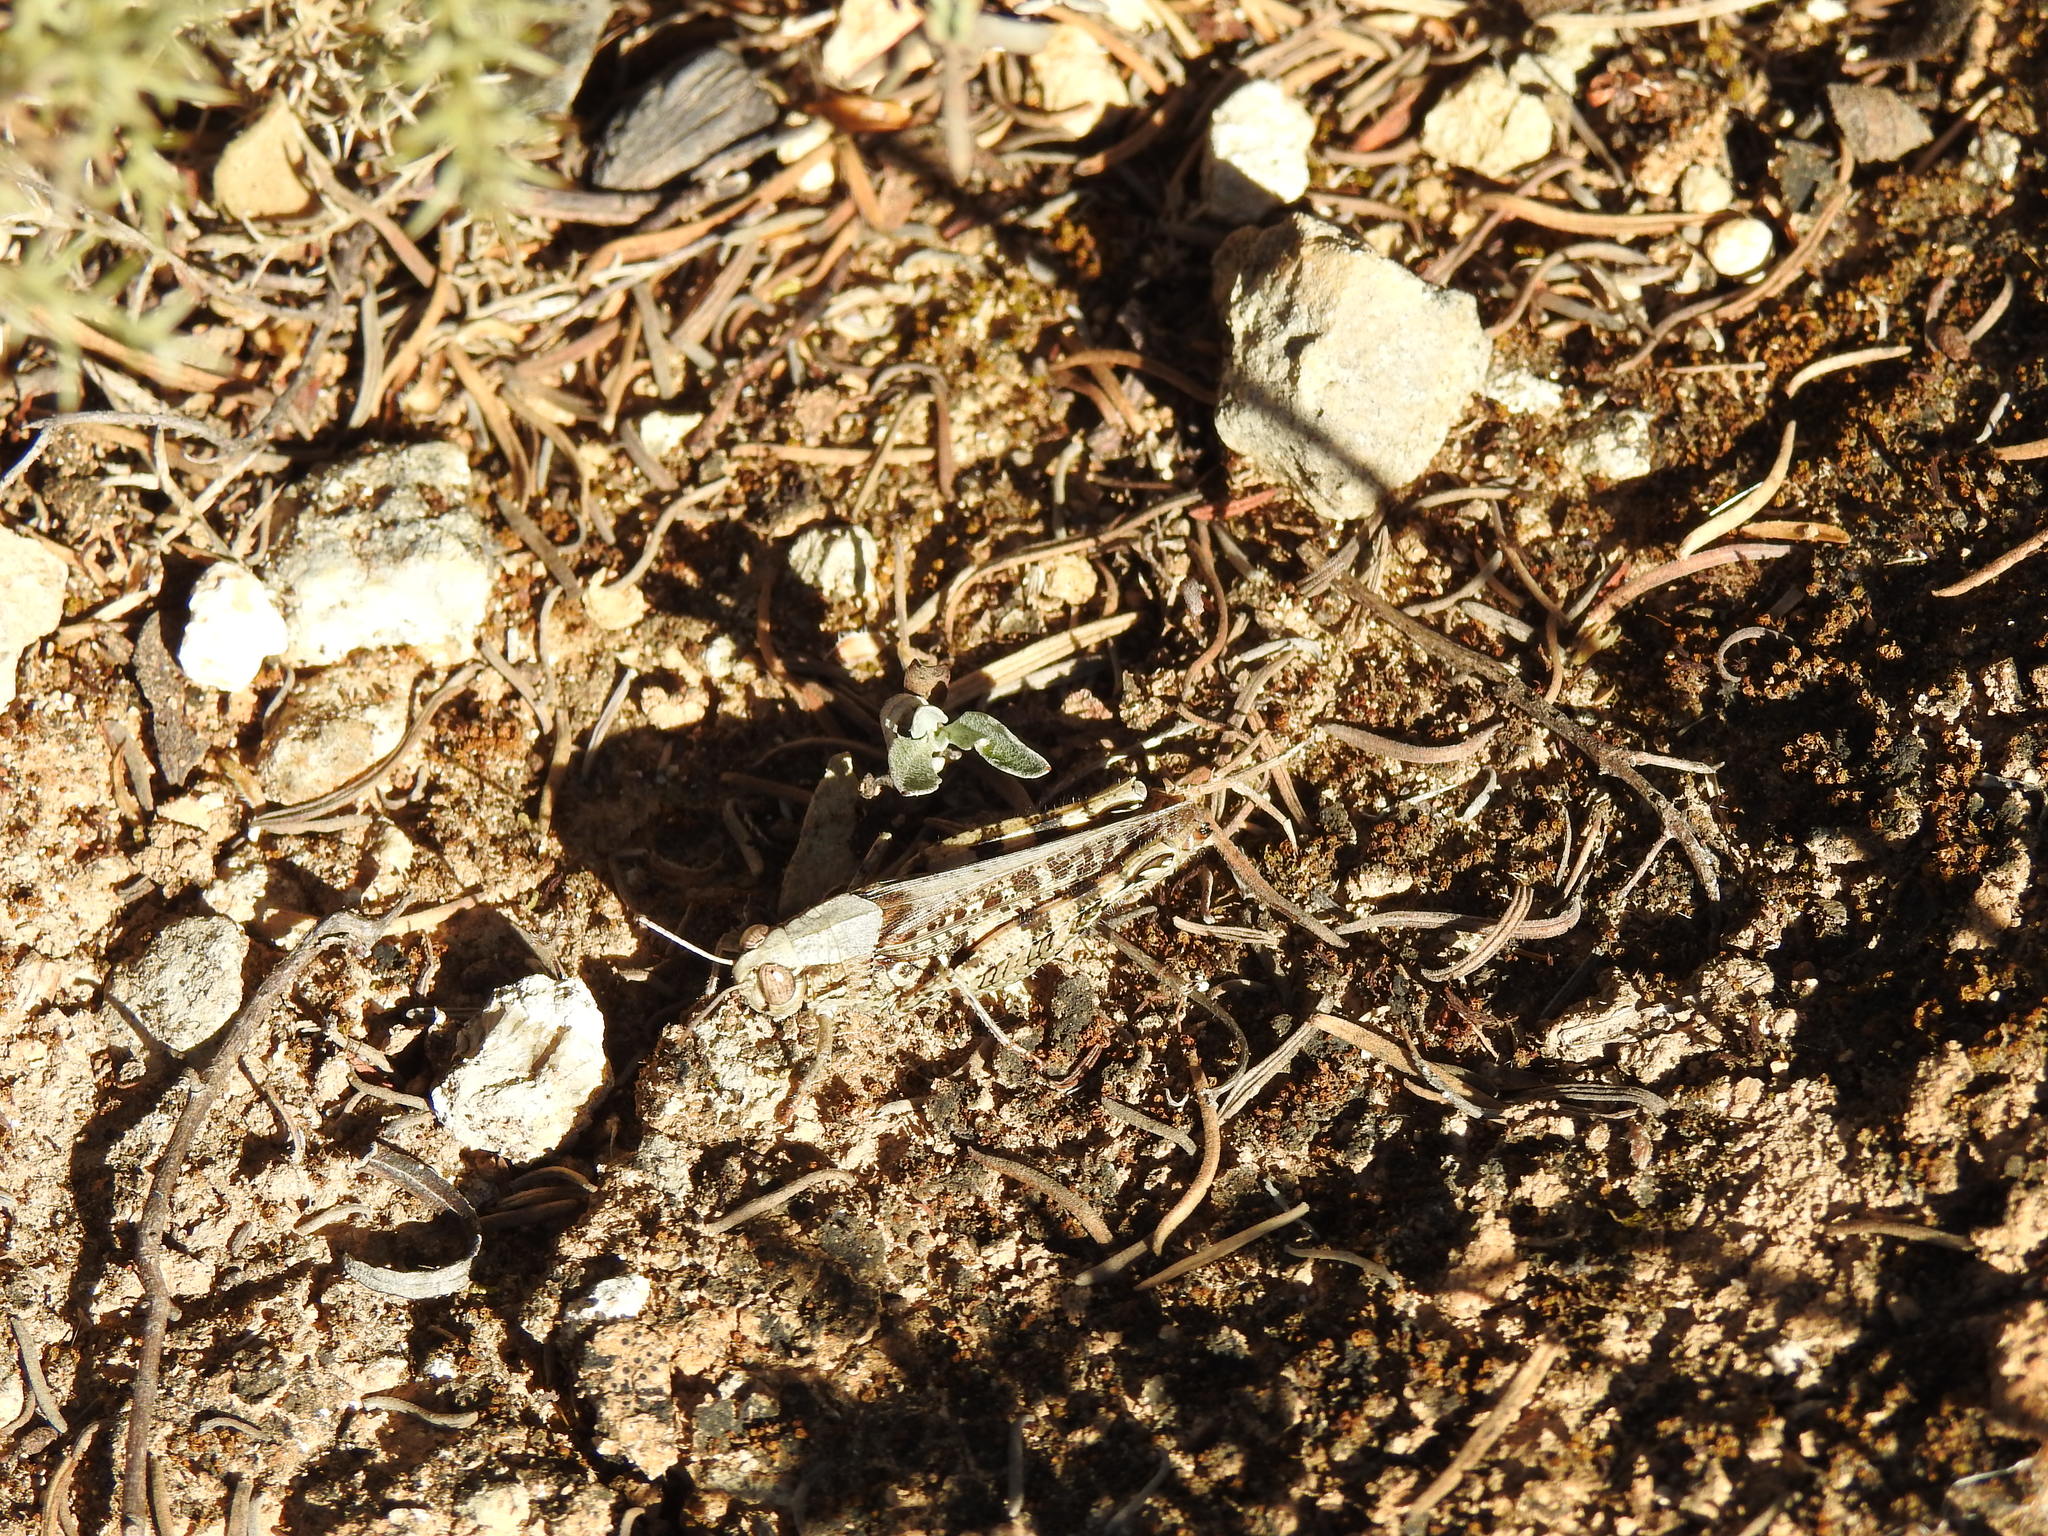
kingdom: Animalia
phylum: Arthropoda
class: Insecta
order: Orthoptera
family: Acrididae
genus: Calliptamus
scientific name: Calliptamus barbarus
